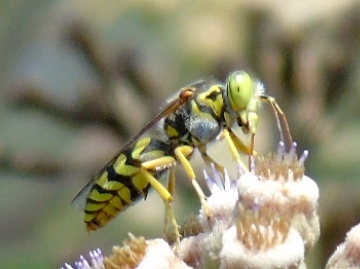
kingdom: Animalia
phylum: Arthropoda
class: Insecta
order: Hymenoptera
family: Crabronidae
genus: Steniolia
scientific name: Steniolia
